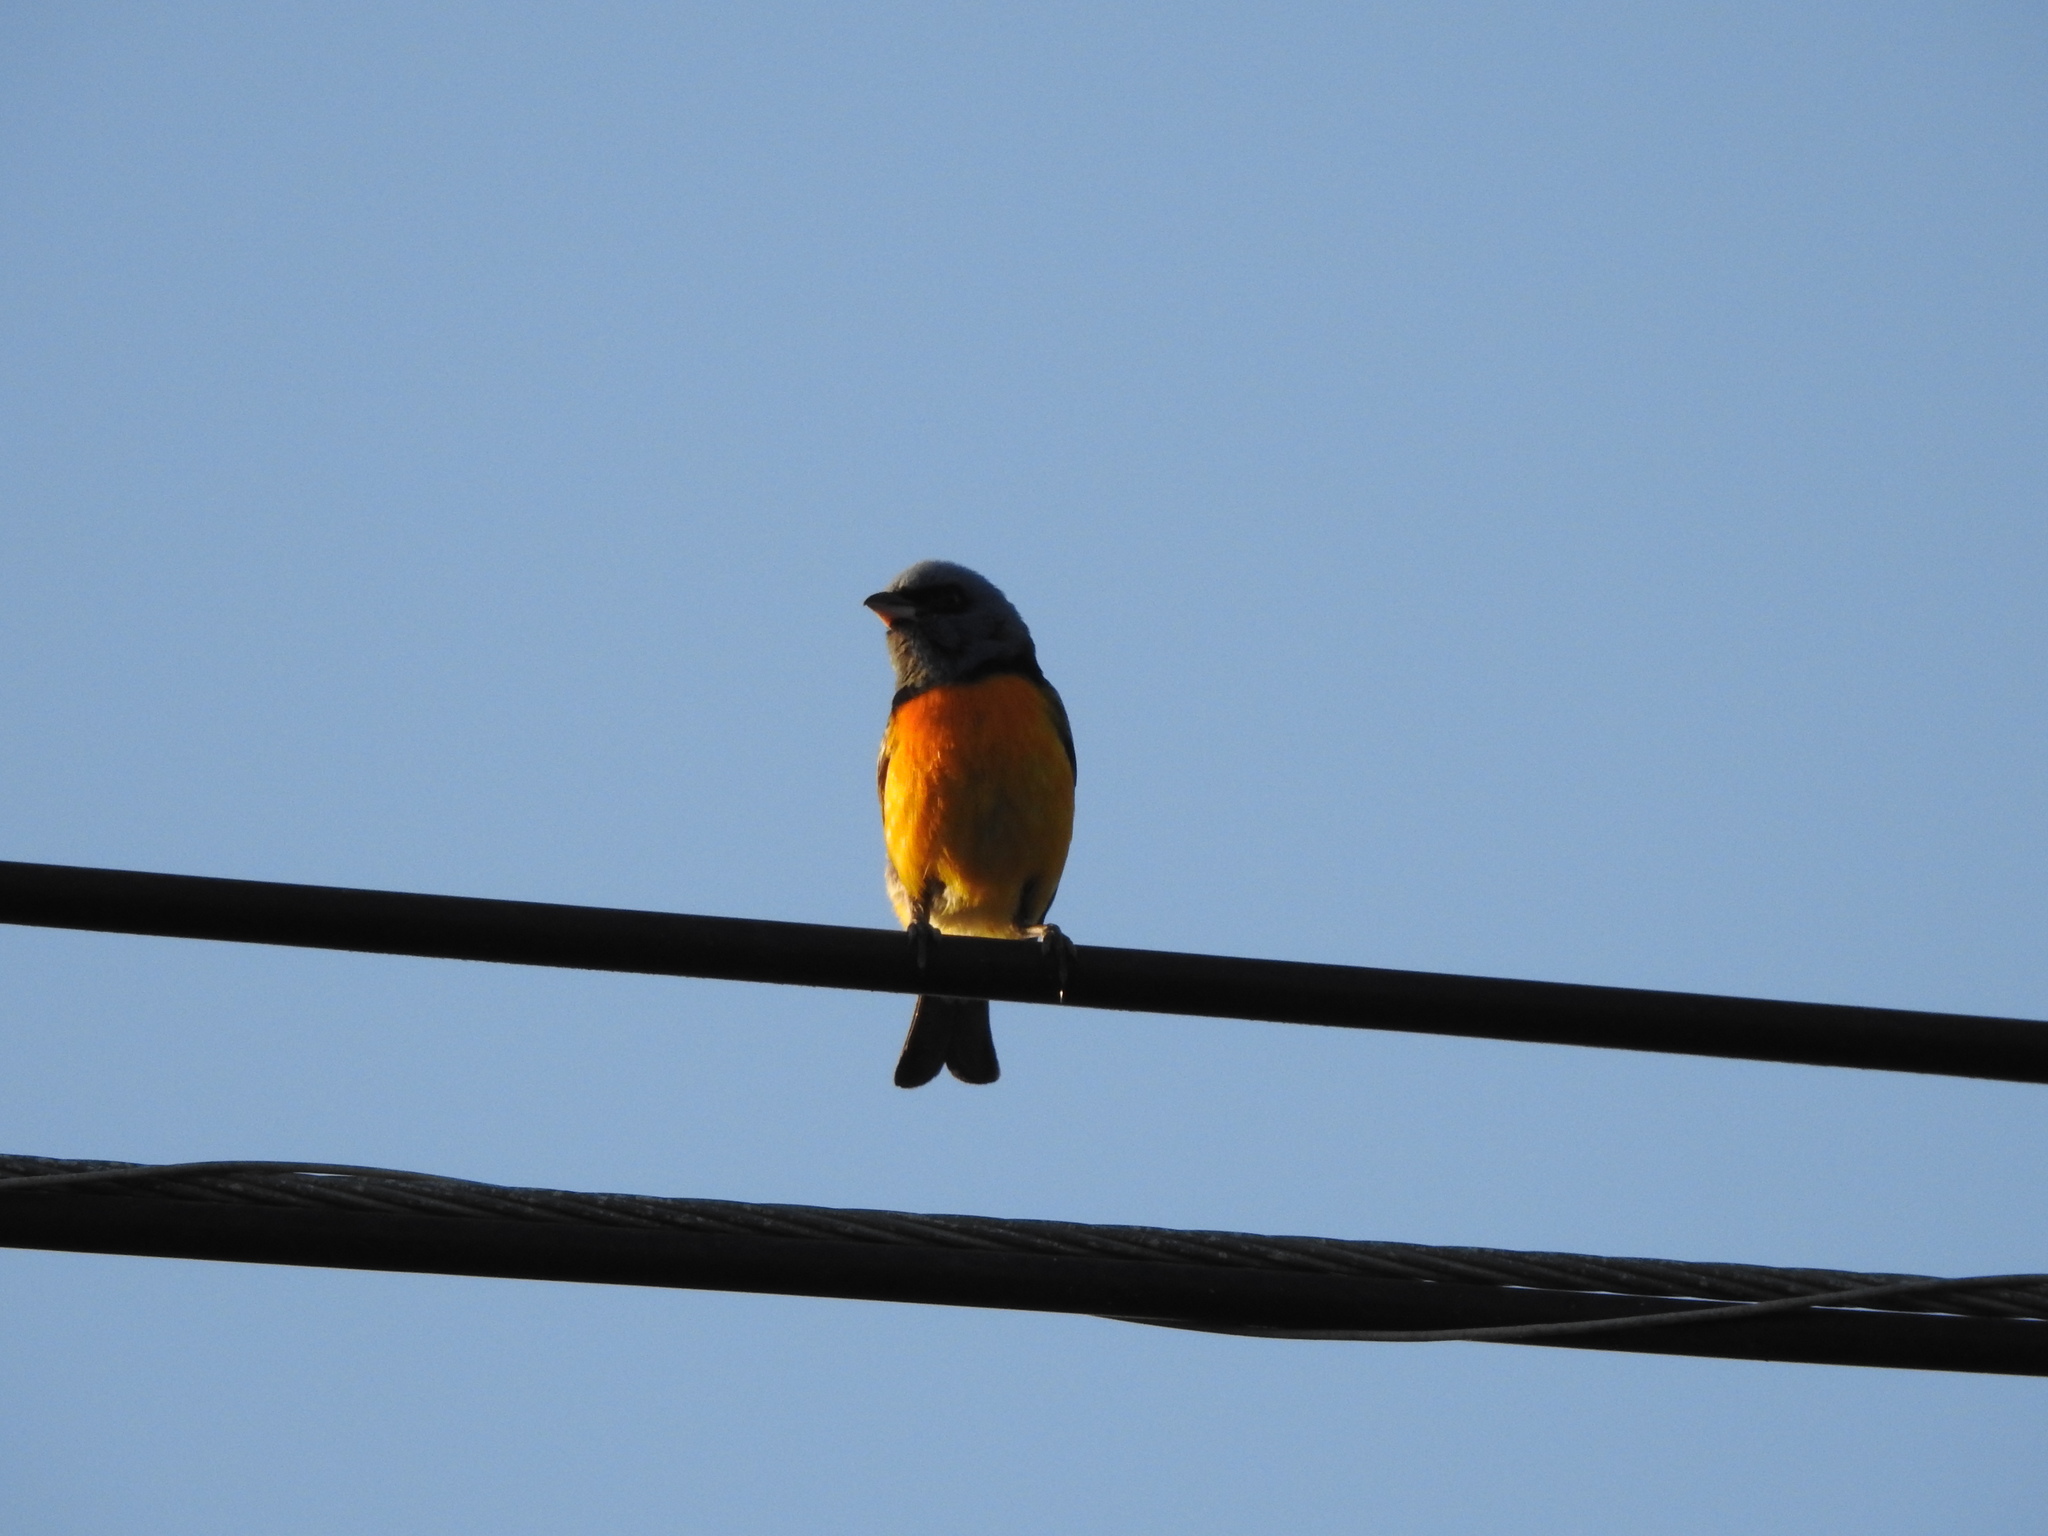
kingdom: Animalia
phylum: Chordata
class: Aves
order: Passeriformes
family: Thraupidae
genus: Rauenia
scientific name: Rauenia bonariensis
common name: Blue-and-yellow tanager
